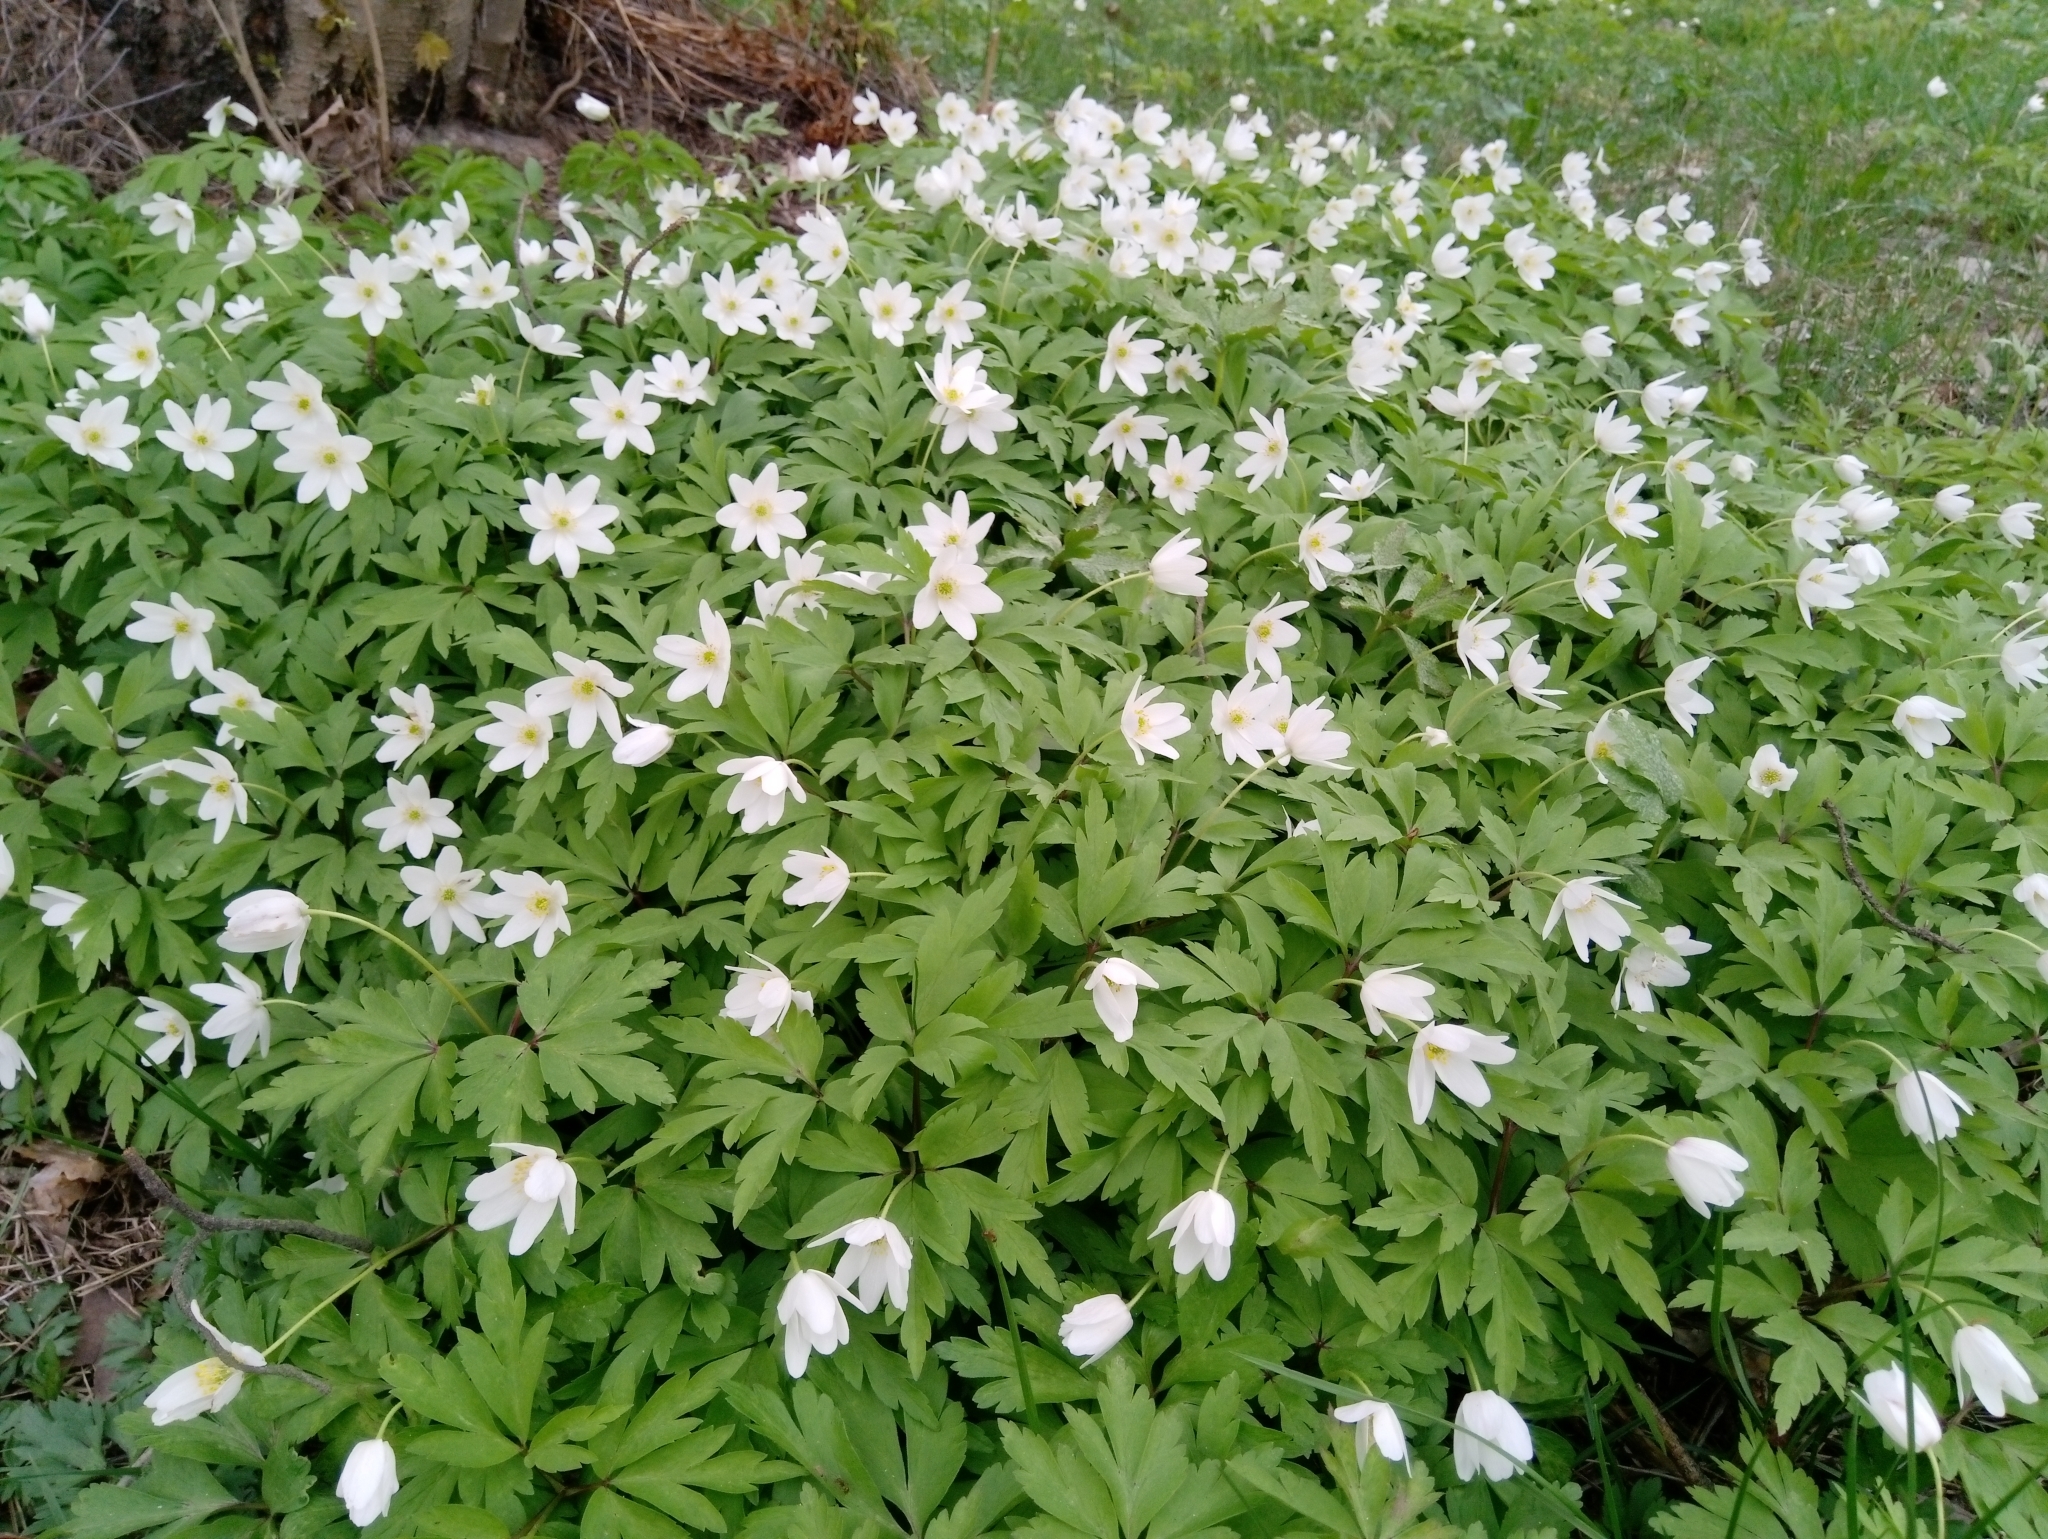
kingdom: Plantae
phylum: Tracheophyta
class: Magnoliopsida
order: Ranunculales
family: Ranunculaceae
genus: Anemone
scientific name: Anemone nemorosa
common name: Wood anemone
